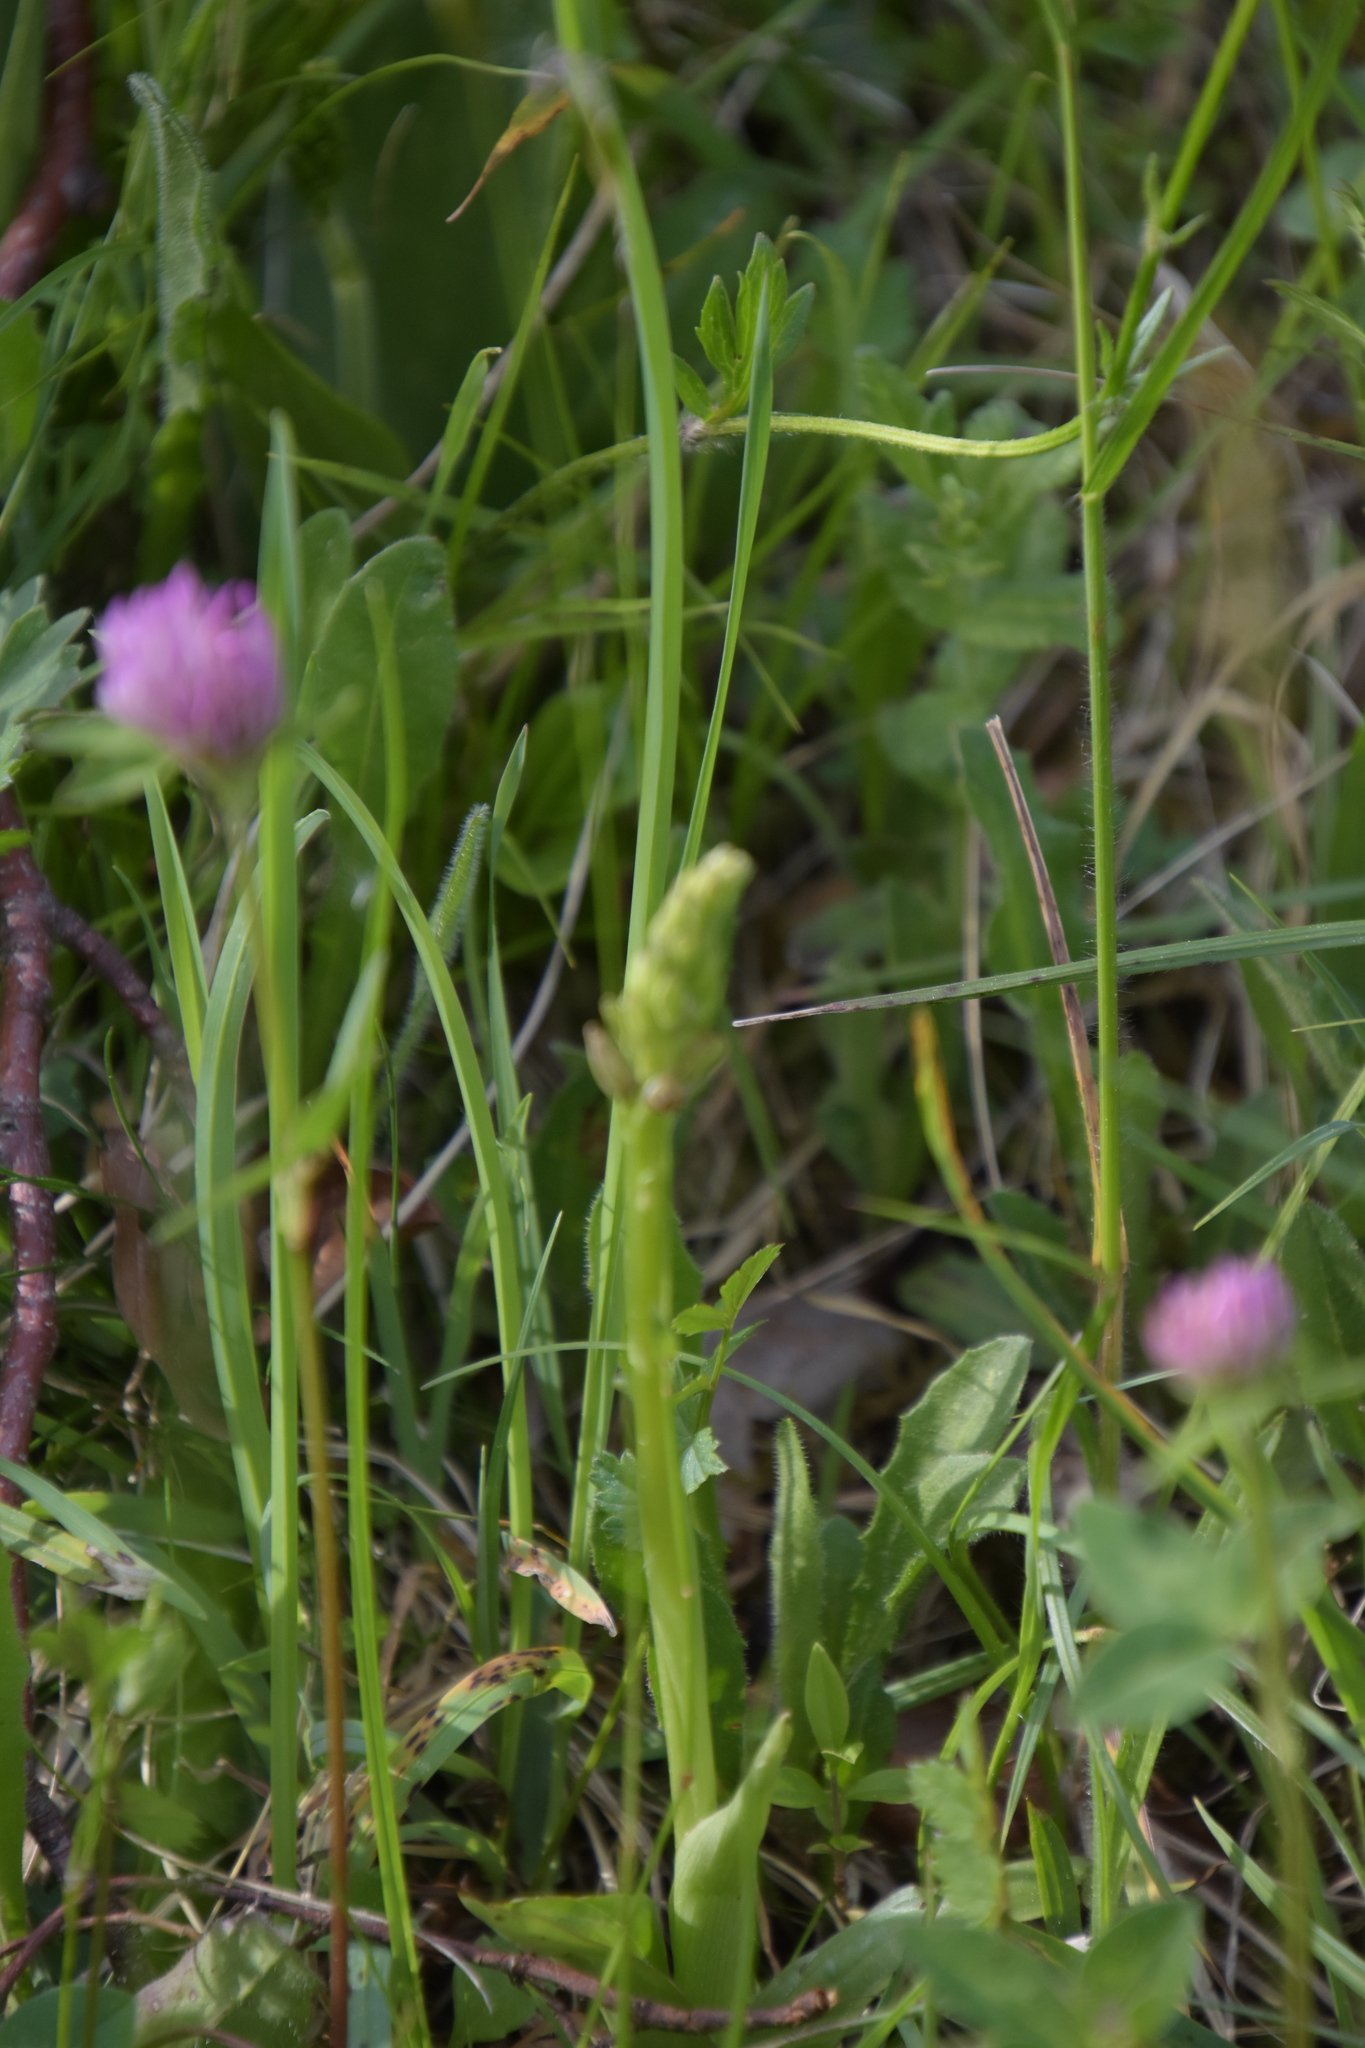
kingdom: Plantae
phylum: Tracheophyta
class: Liliopsida
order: Asparagales
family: Orchidaceae
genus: Orchis
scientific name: Orchis anthropophora
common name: Man orchid
